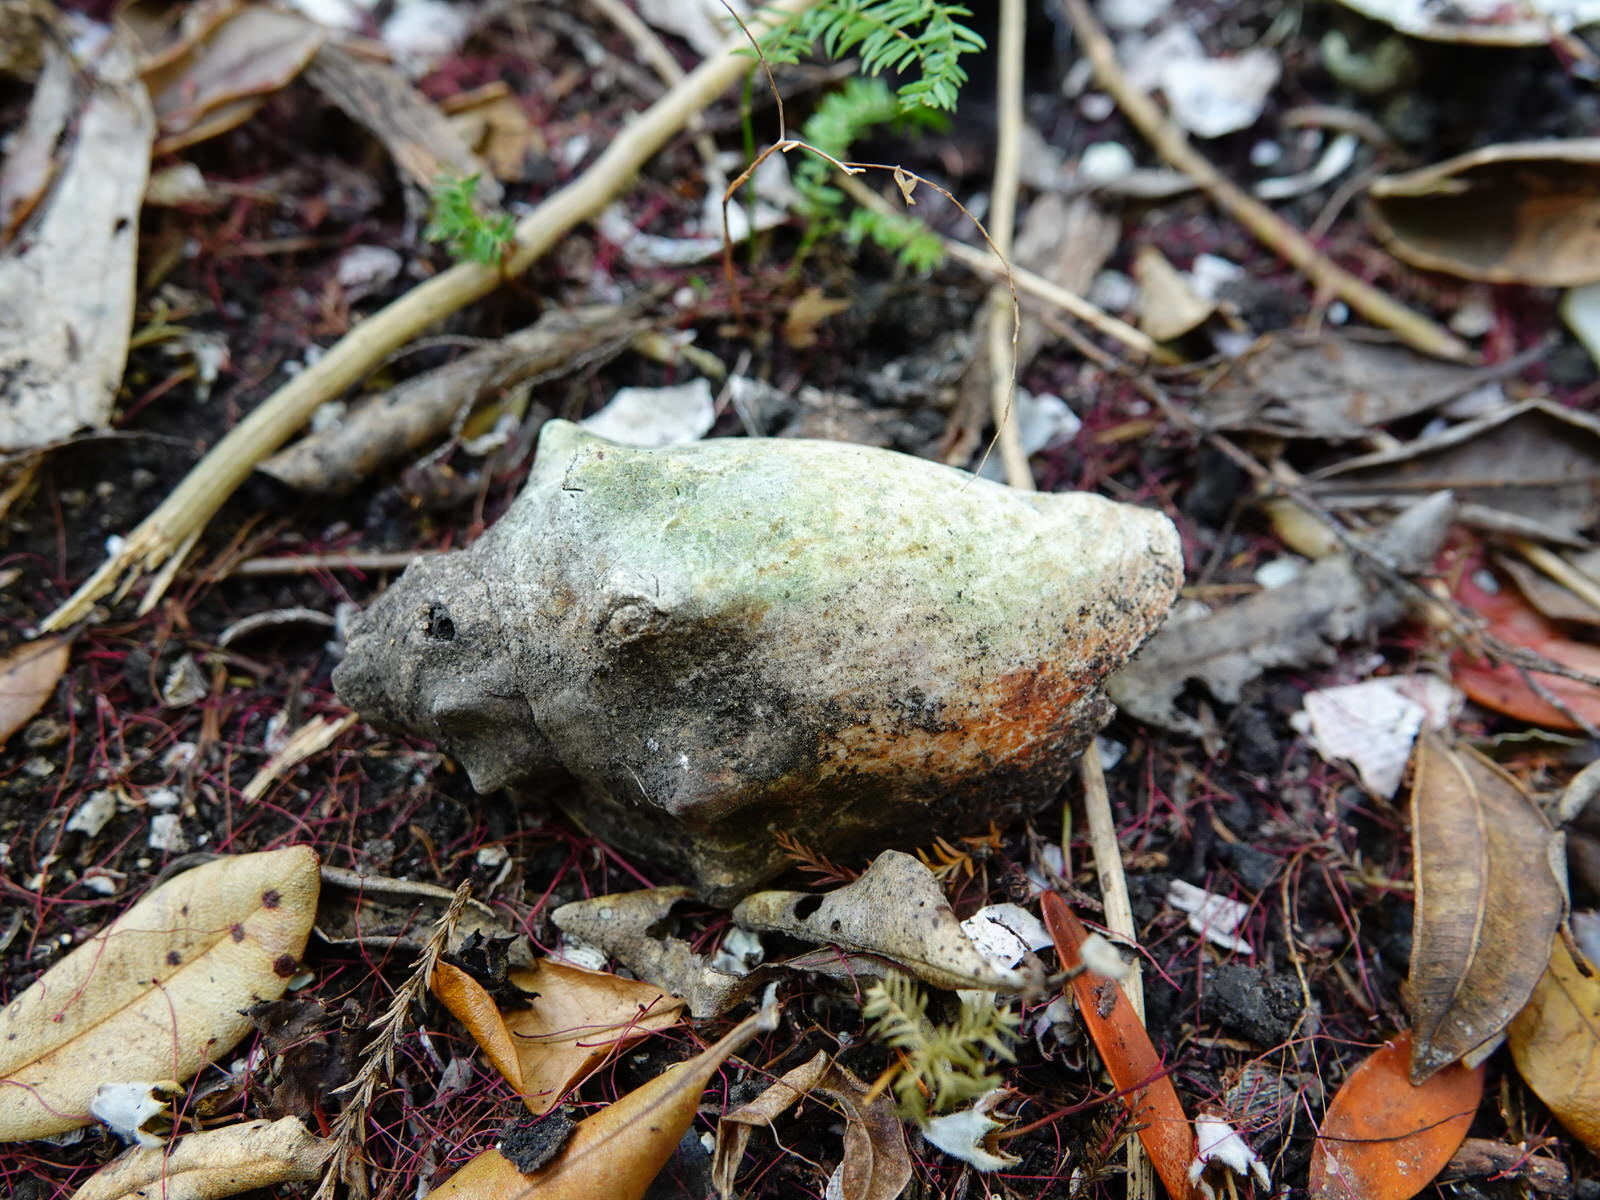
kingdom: Animalia
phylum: Mollusca
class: Gastropoda
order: Neogastropoda
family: Volutidae
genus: Alcithoe
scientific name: Alcithoe arabica
